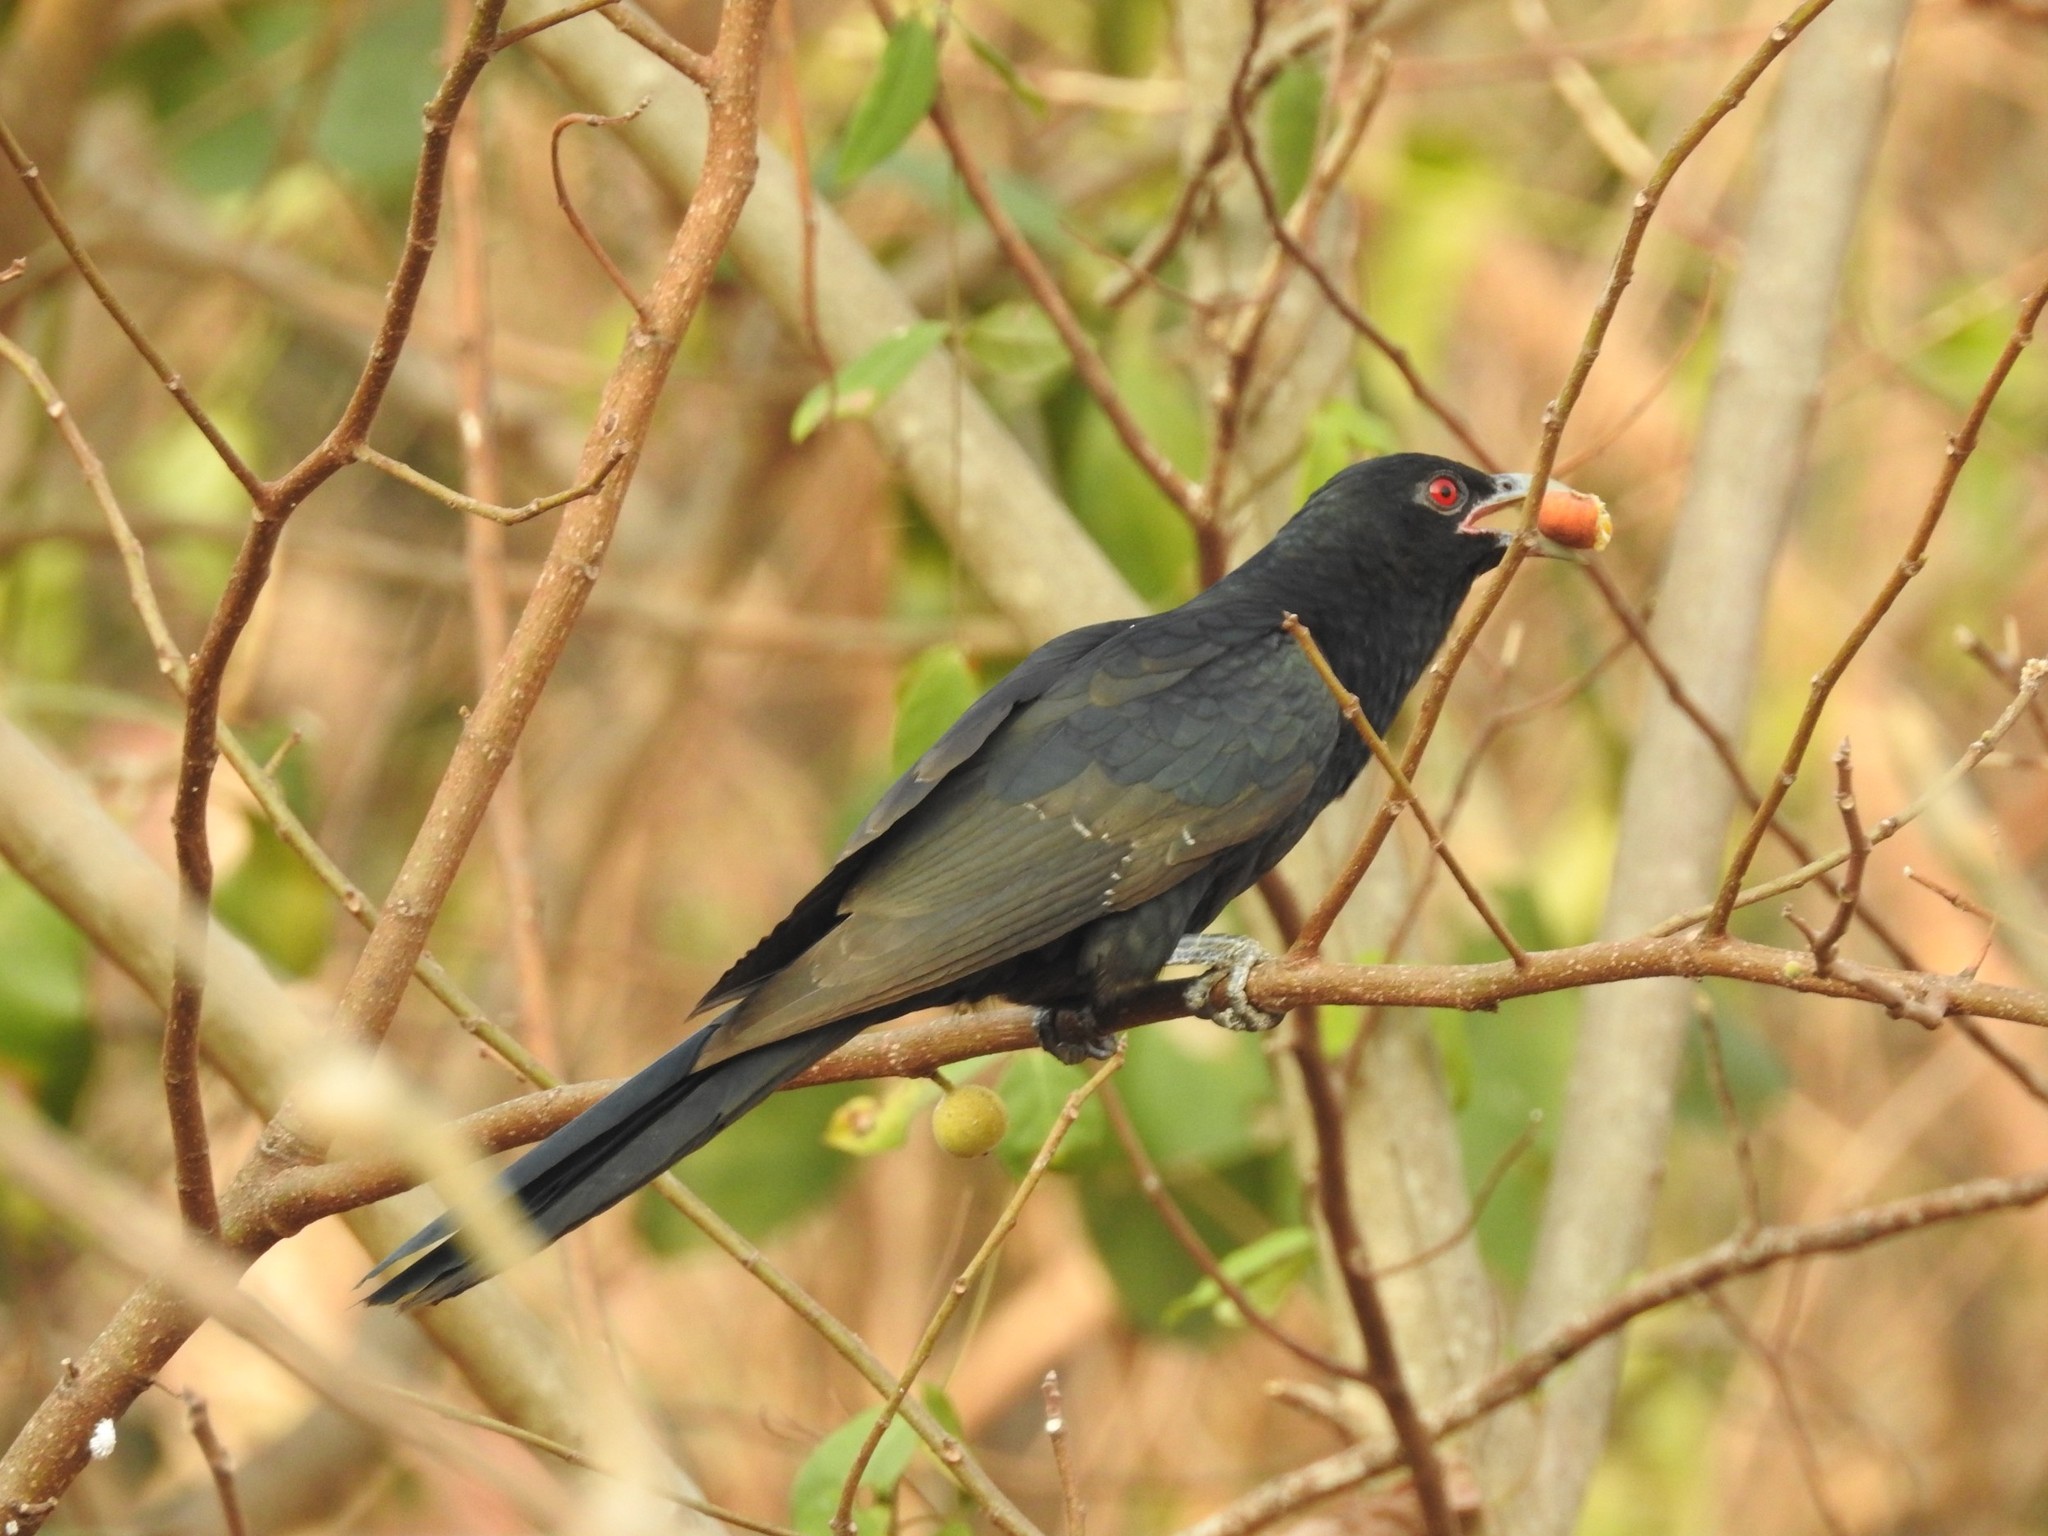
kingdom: Animalia
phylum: Chordata
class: Aves
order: Cuculiformes
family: Cuculidae
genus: Eudynamys
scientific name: Eudynamys scolopaceus
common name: Asian koel
